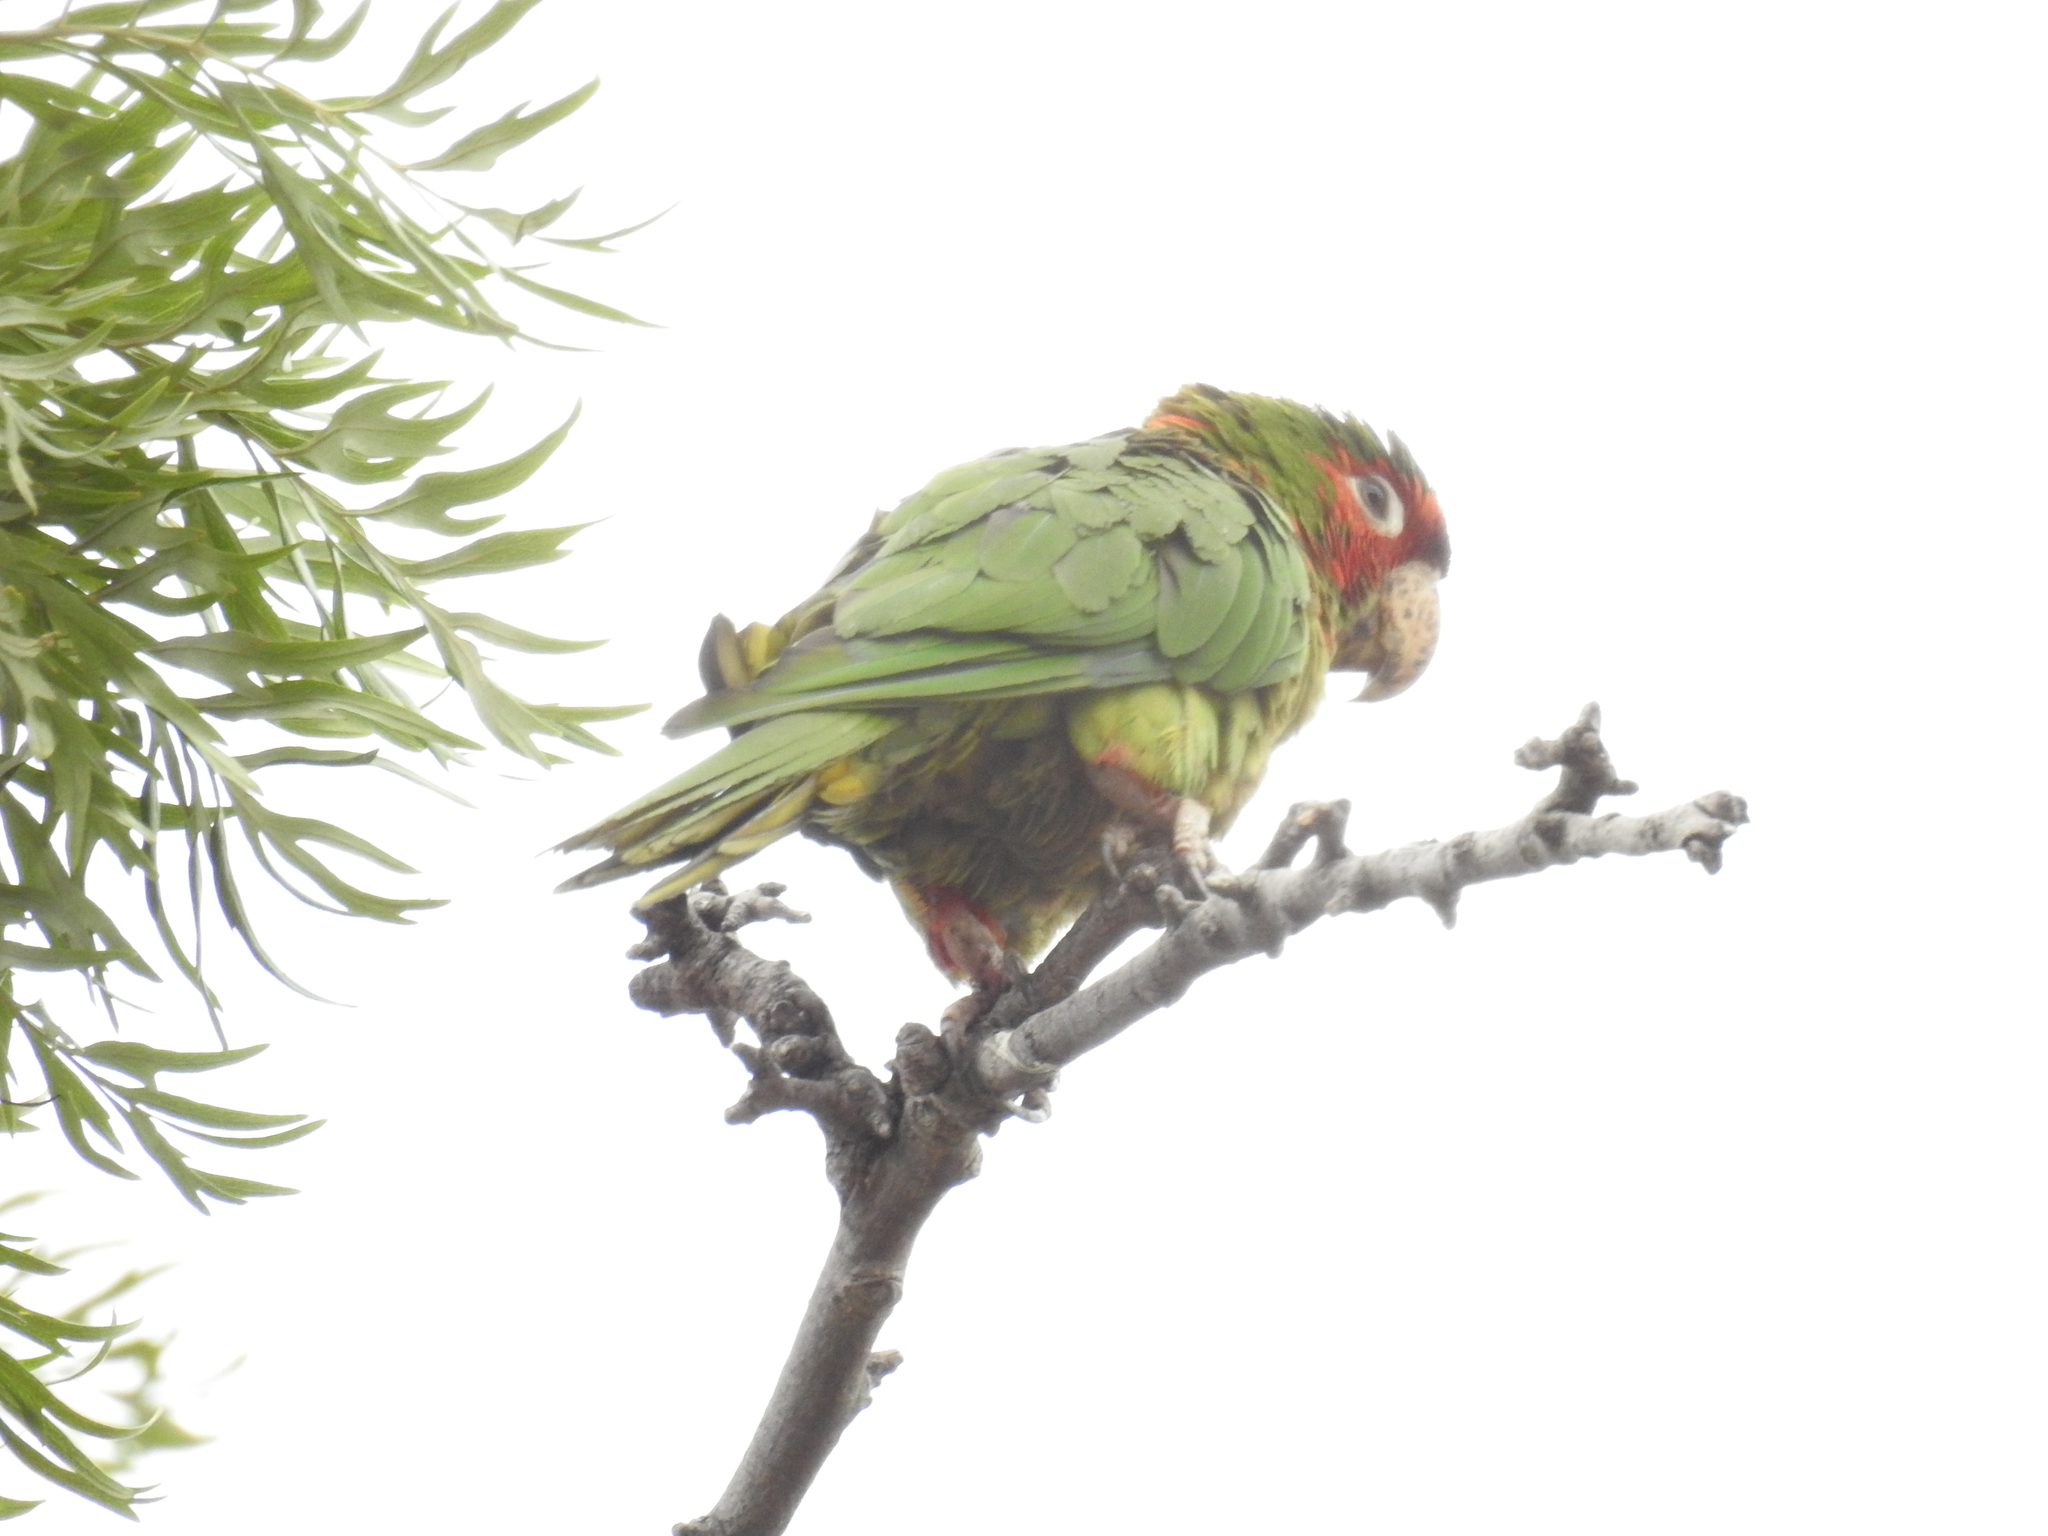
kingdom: Animalia
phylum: Chordata
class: Aves
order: Psittaciformes
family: Psittacidae
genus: Aratinga
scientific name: Aratinga mitrata
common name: Mitred parakeet
